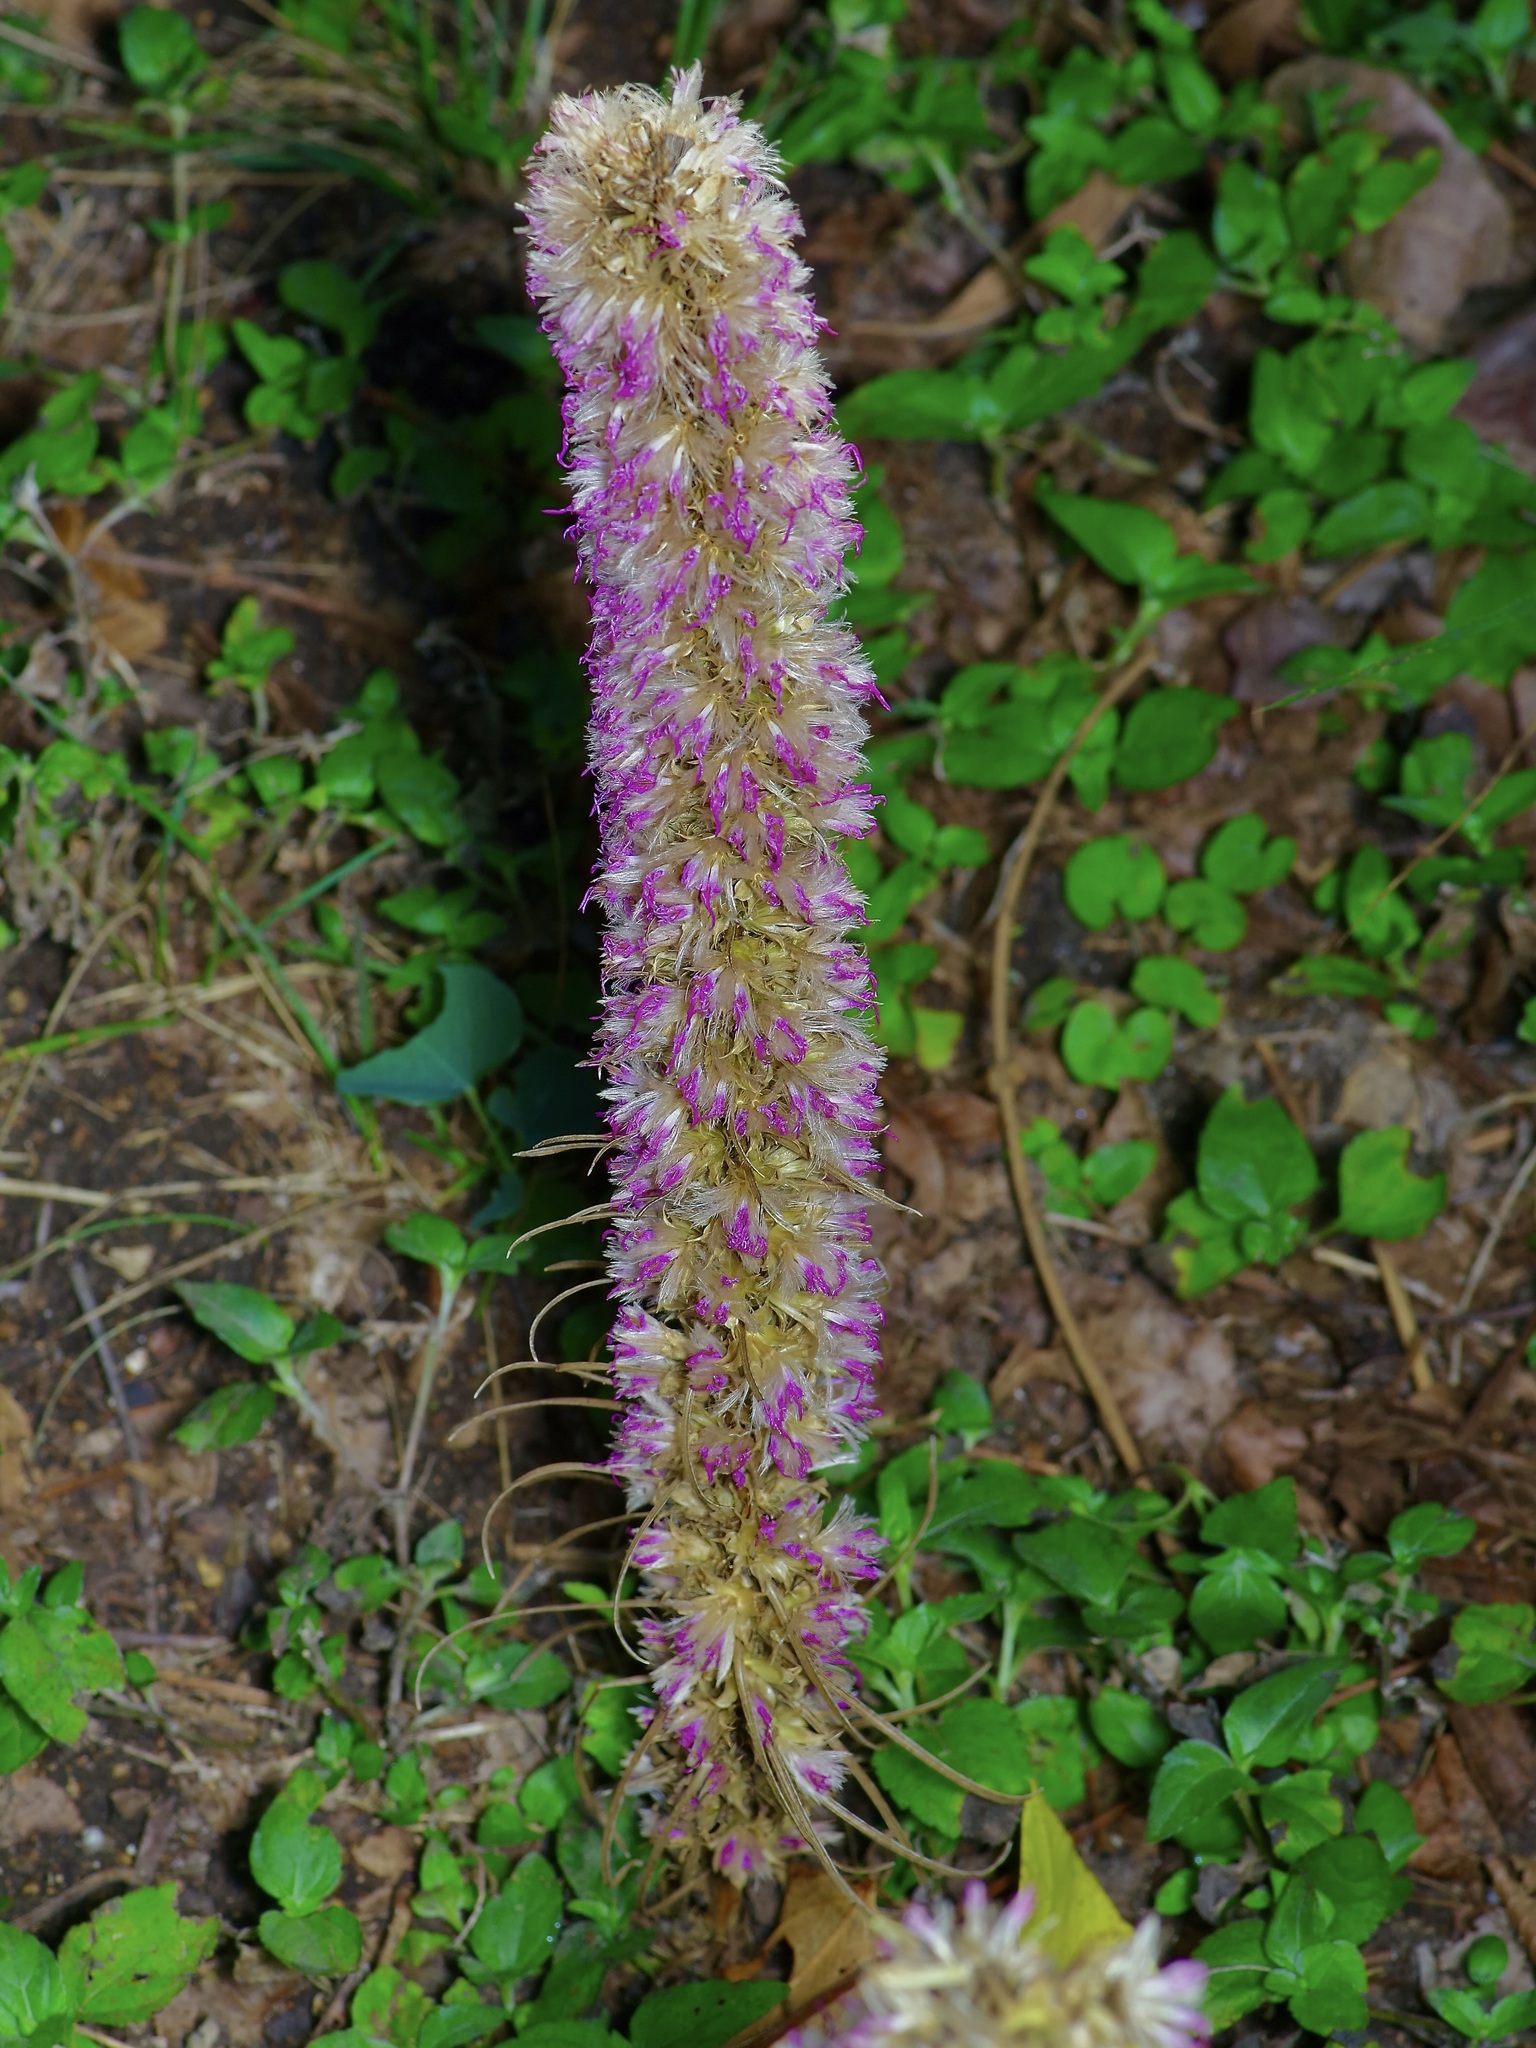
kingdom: Plantae
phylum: Tracheophyta
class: Magnoliopsida
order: Asterales
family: Asteraceae
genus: Liatris
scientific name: Liatris punctata
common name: Dotted gayfeather
